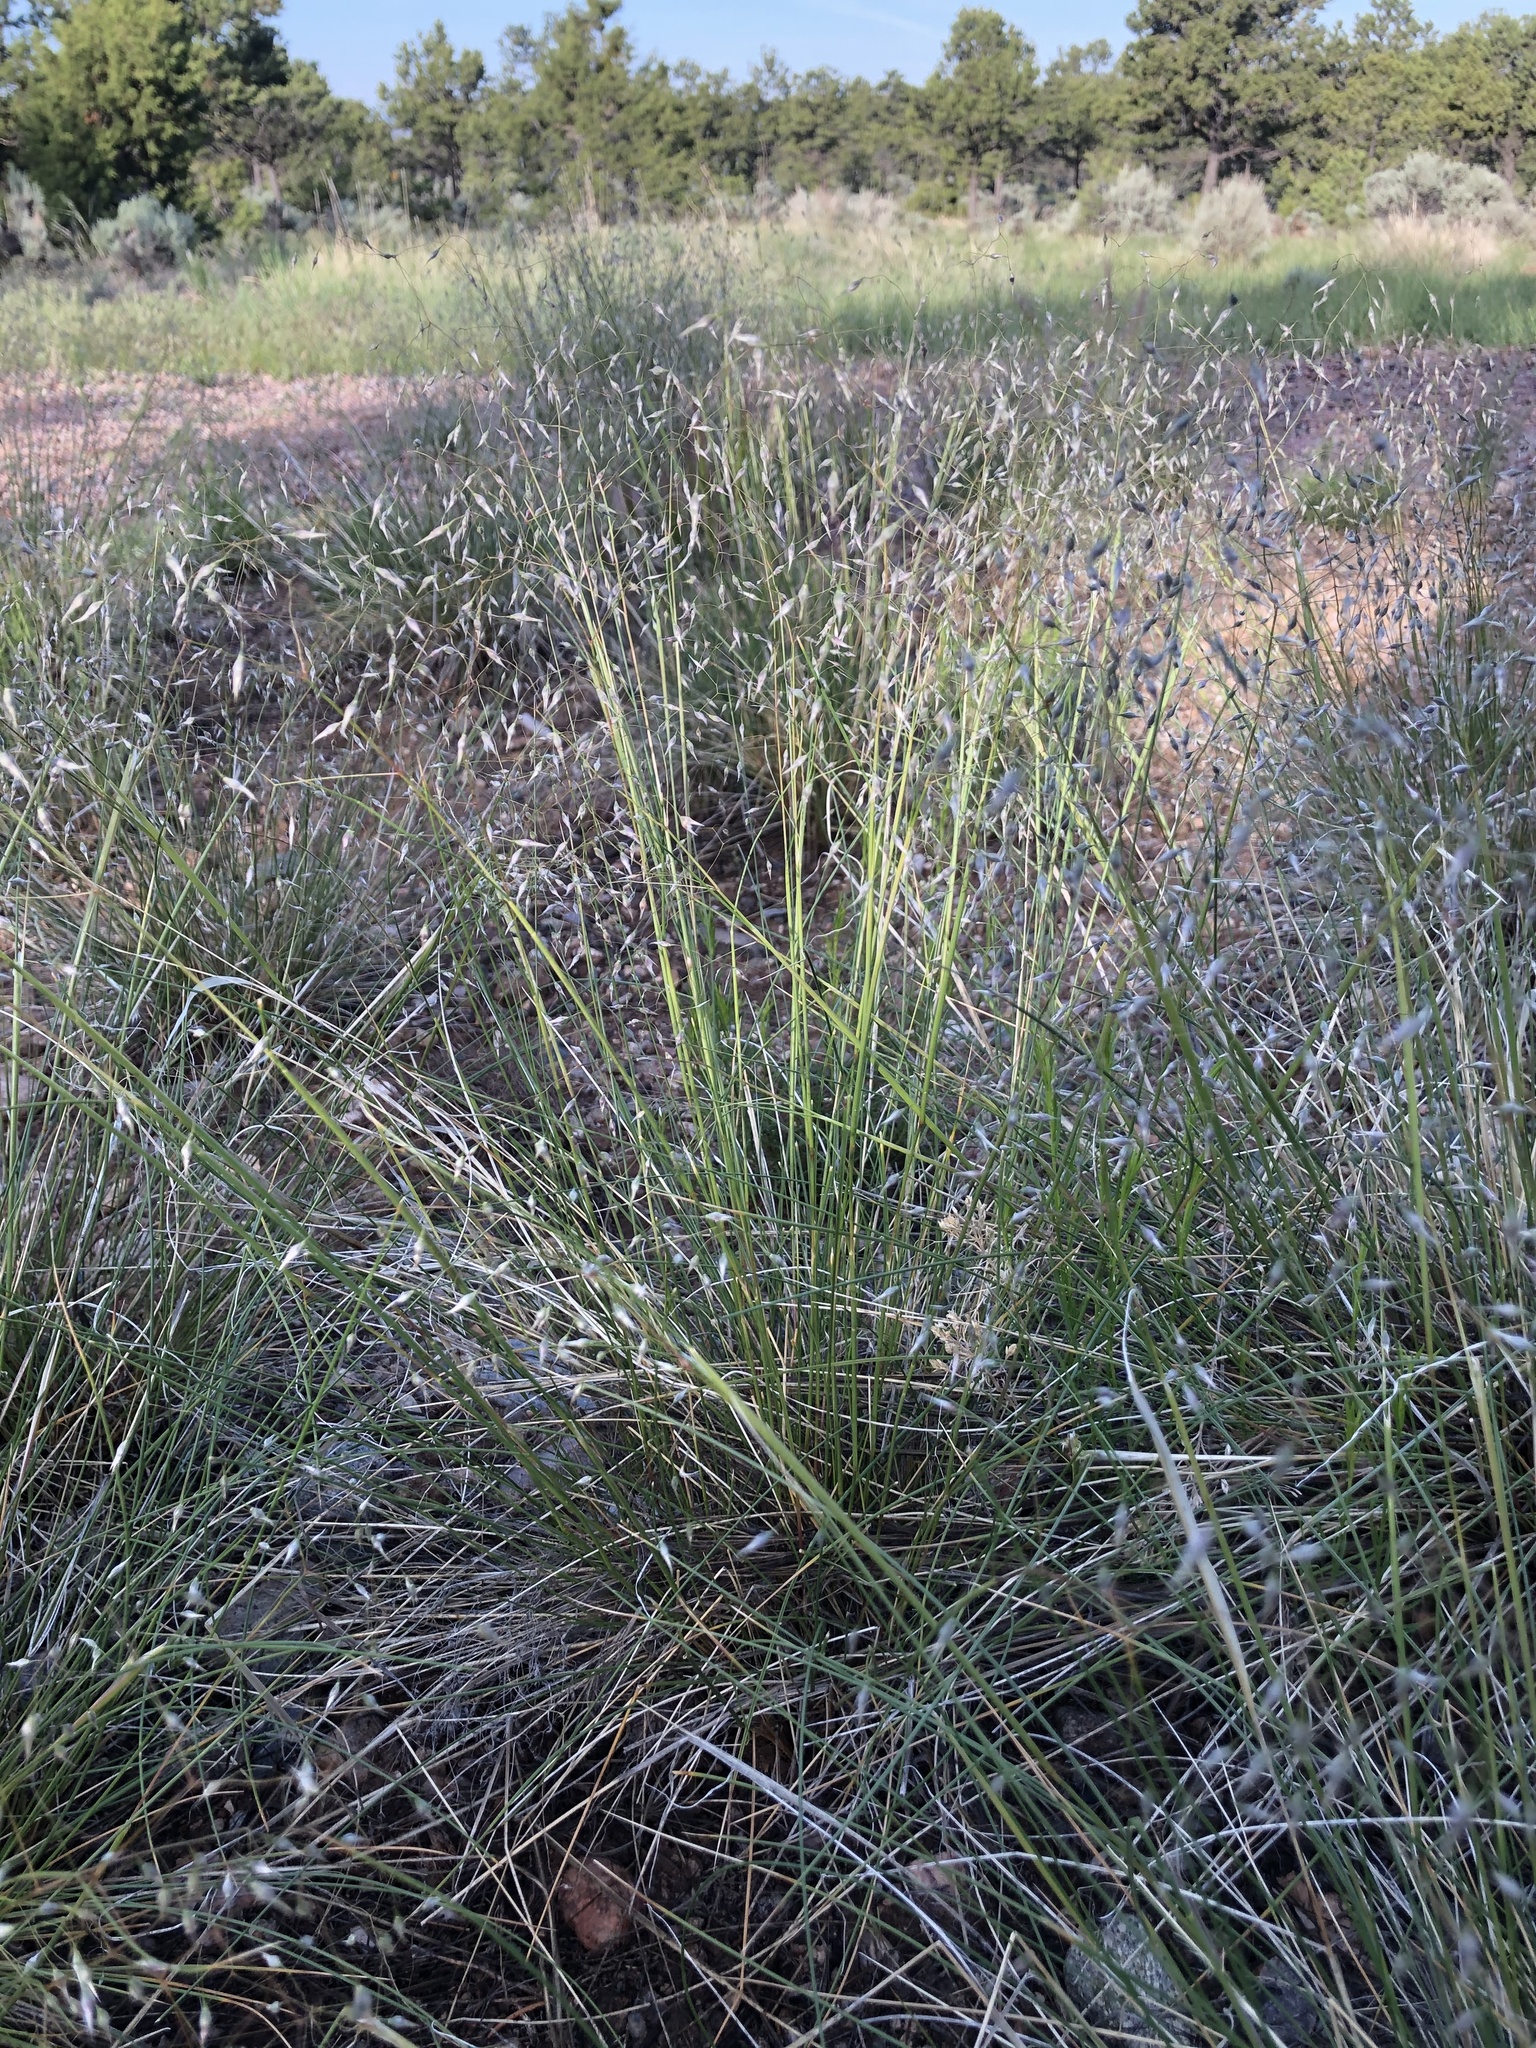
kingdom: Plantae
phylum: Tracheophyta
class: Liliopsida
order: Poales
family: Poaceae
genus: Eriocoma
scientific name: Eriocoma hymenoides
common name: Indian mountain ricegrass
